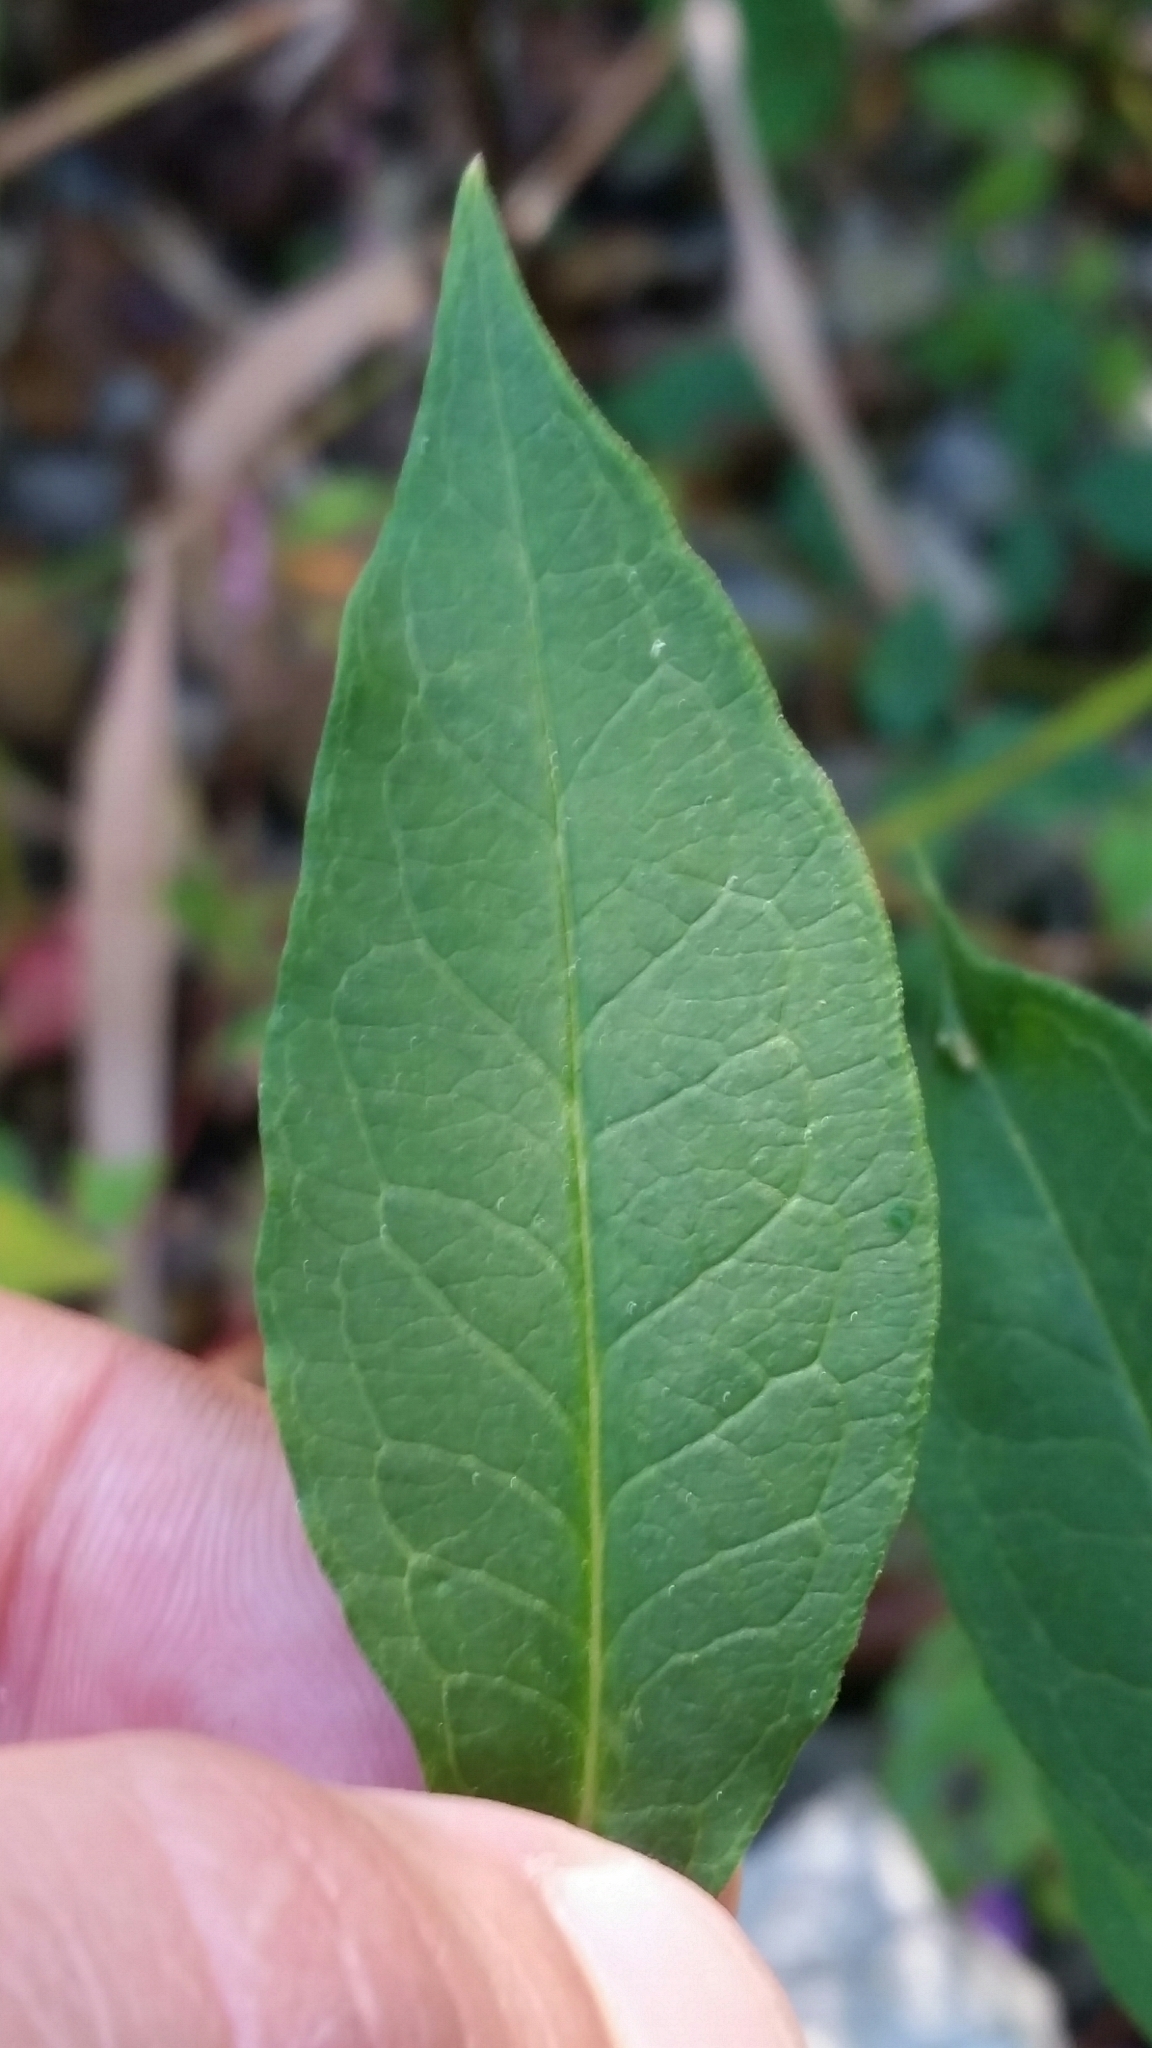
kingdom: Plantae
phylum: Tracheophyta
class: Magnoliopsida
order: Ericales
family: Polemoniaceae
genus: Phlox
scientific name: Phlox paniculata
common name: Fall phlox
